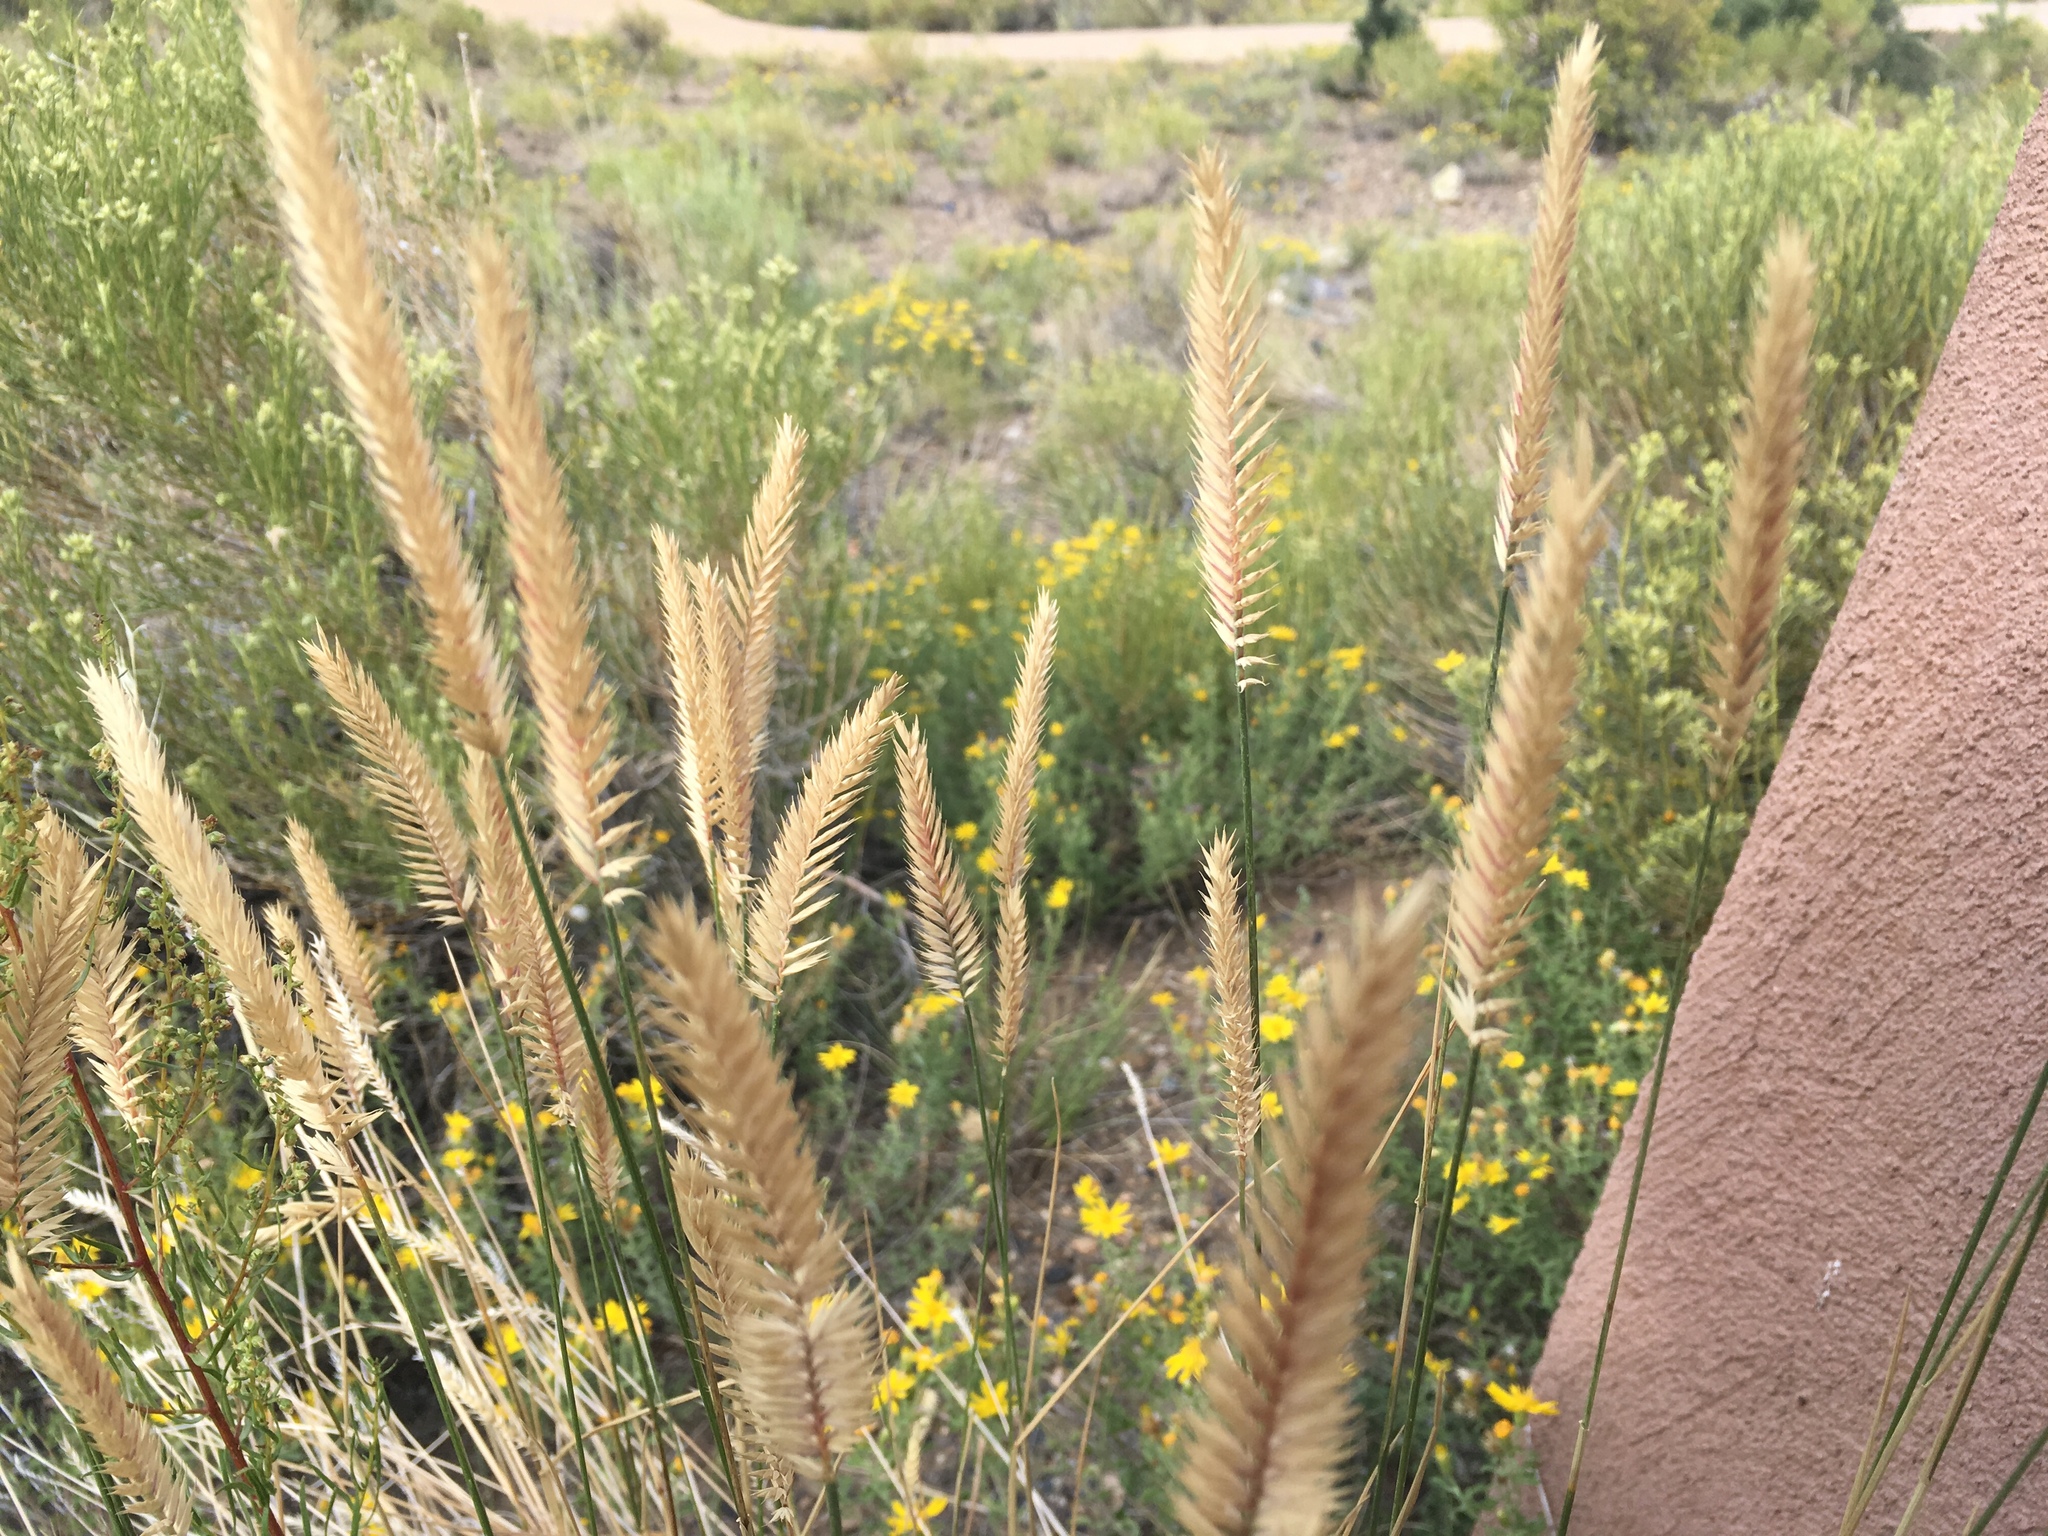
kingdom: Plantae
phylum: Tracheophyta
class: Liliopsida
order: Poales
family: Poaceae
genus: Agropyron
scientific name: Agropyron cristatum
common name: Crested wheatgrass
